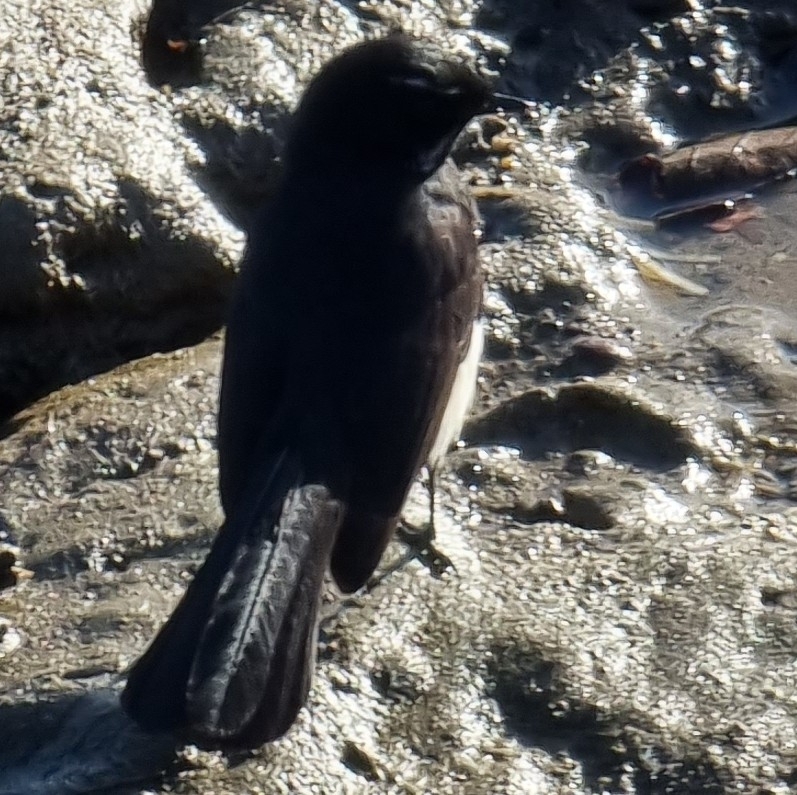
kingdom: Animalia
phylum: Chordata
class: Aves
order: Passeriformes
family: Rhipiduridae
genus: Rhipidura
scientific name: Rhipidura leucophrys
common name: Willie wagtail
